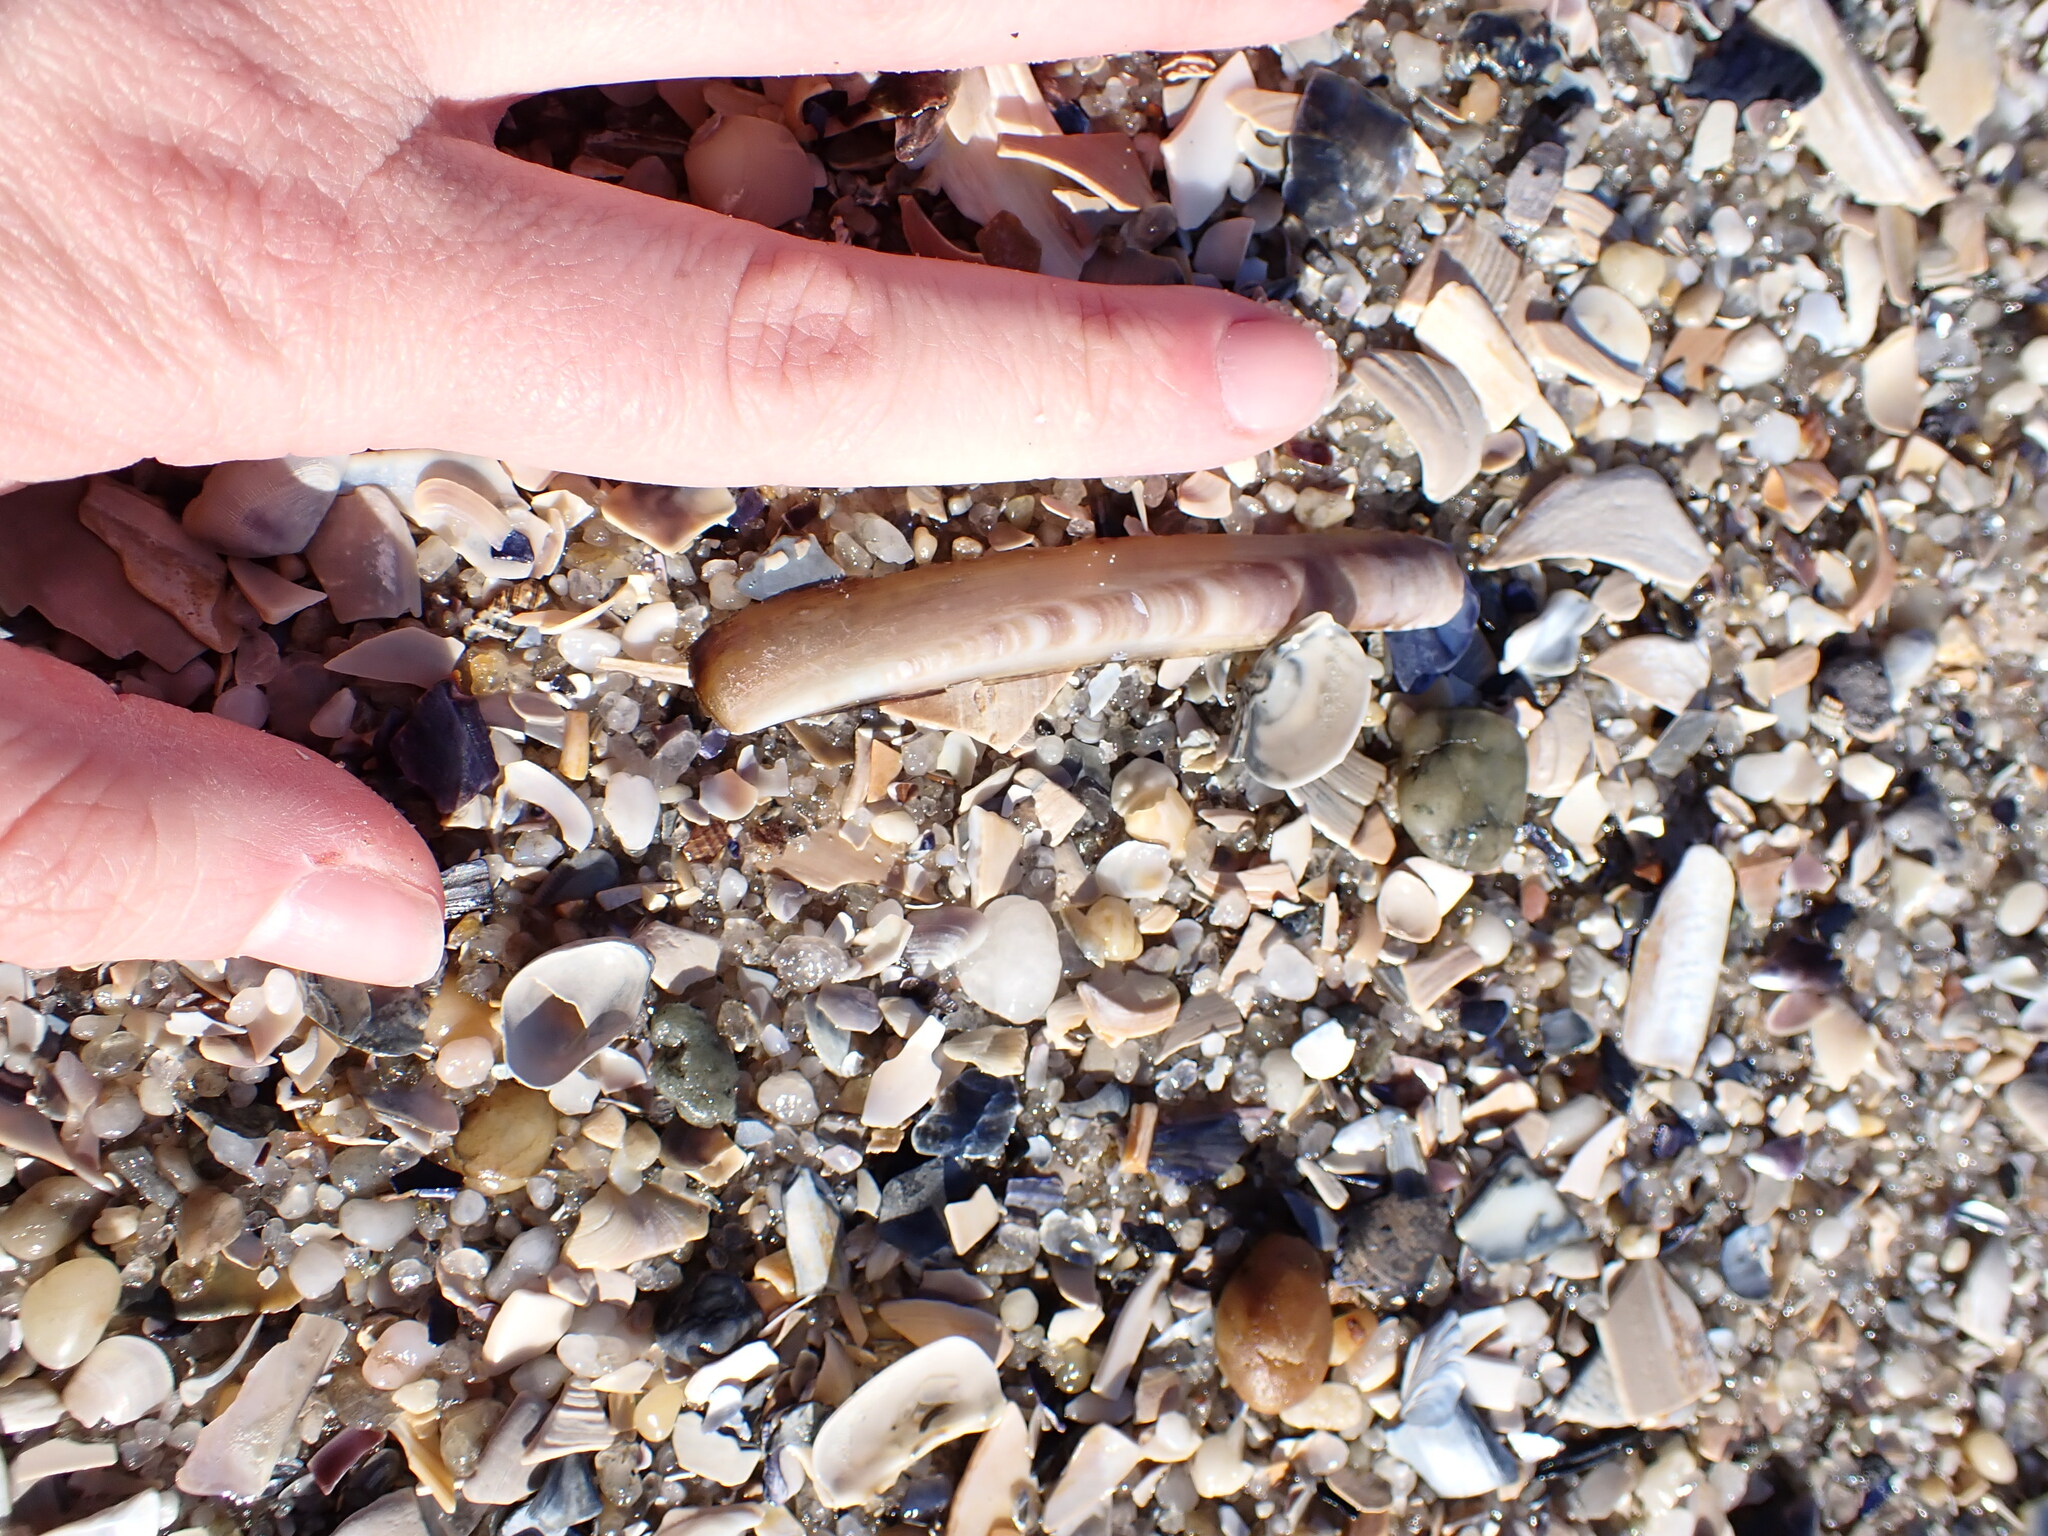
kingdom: Animalia
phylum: Mollusca
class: Bivalvia
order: Adapedonta
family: Pharidae
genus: Ensis
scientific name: Ensis leei
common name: American jack knife clam
